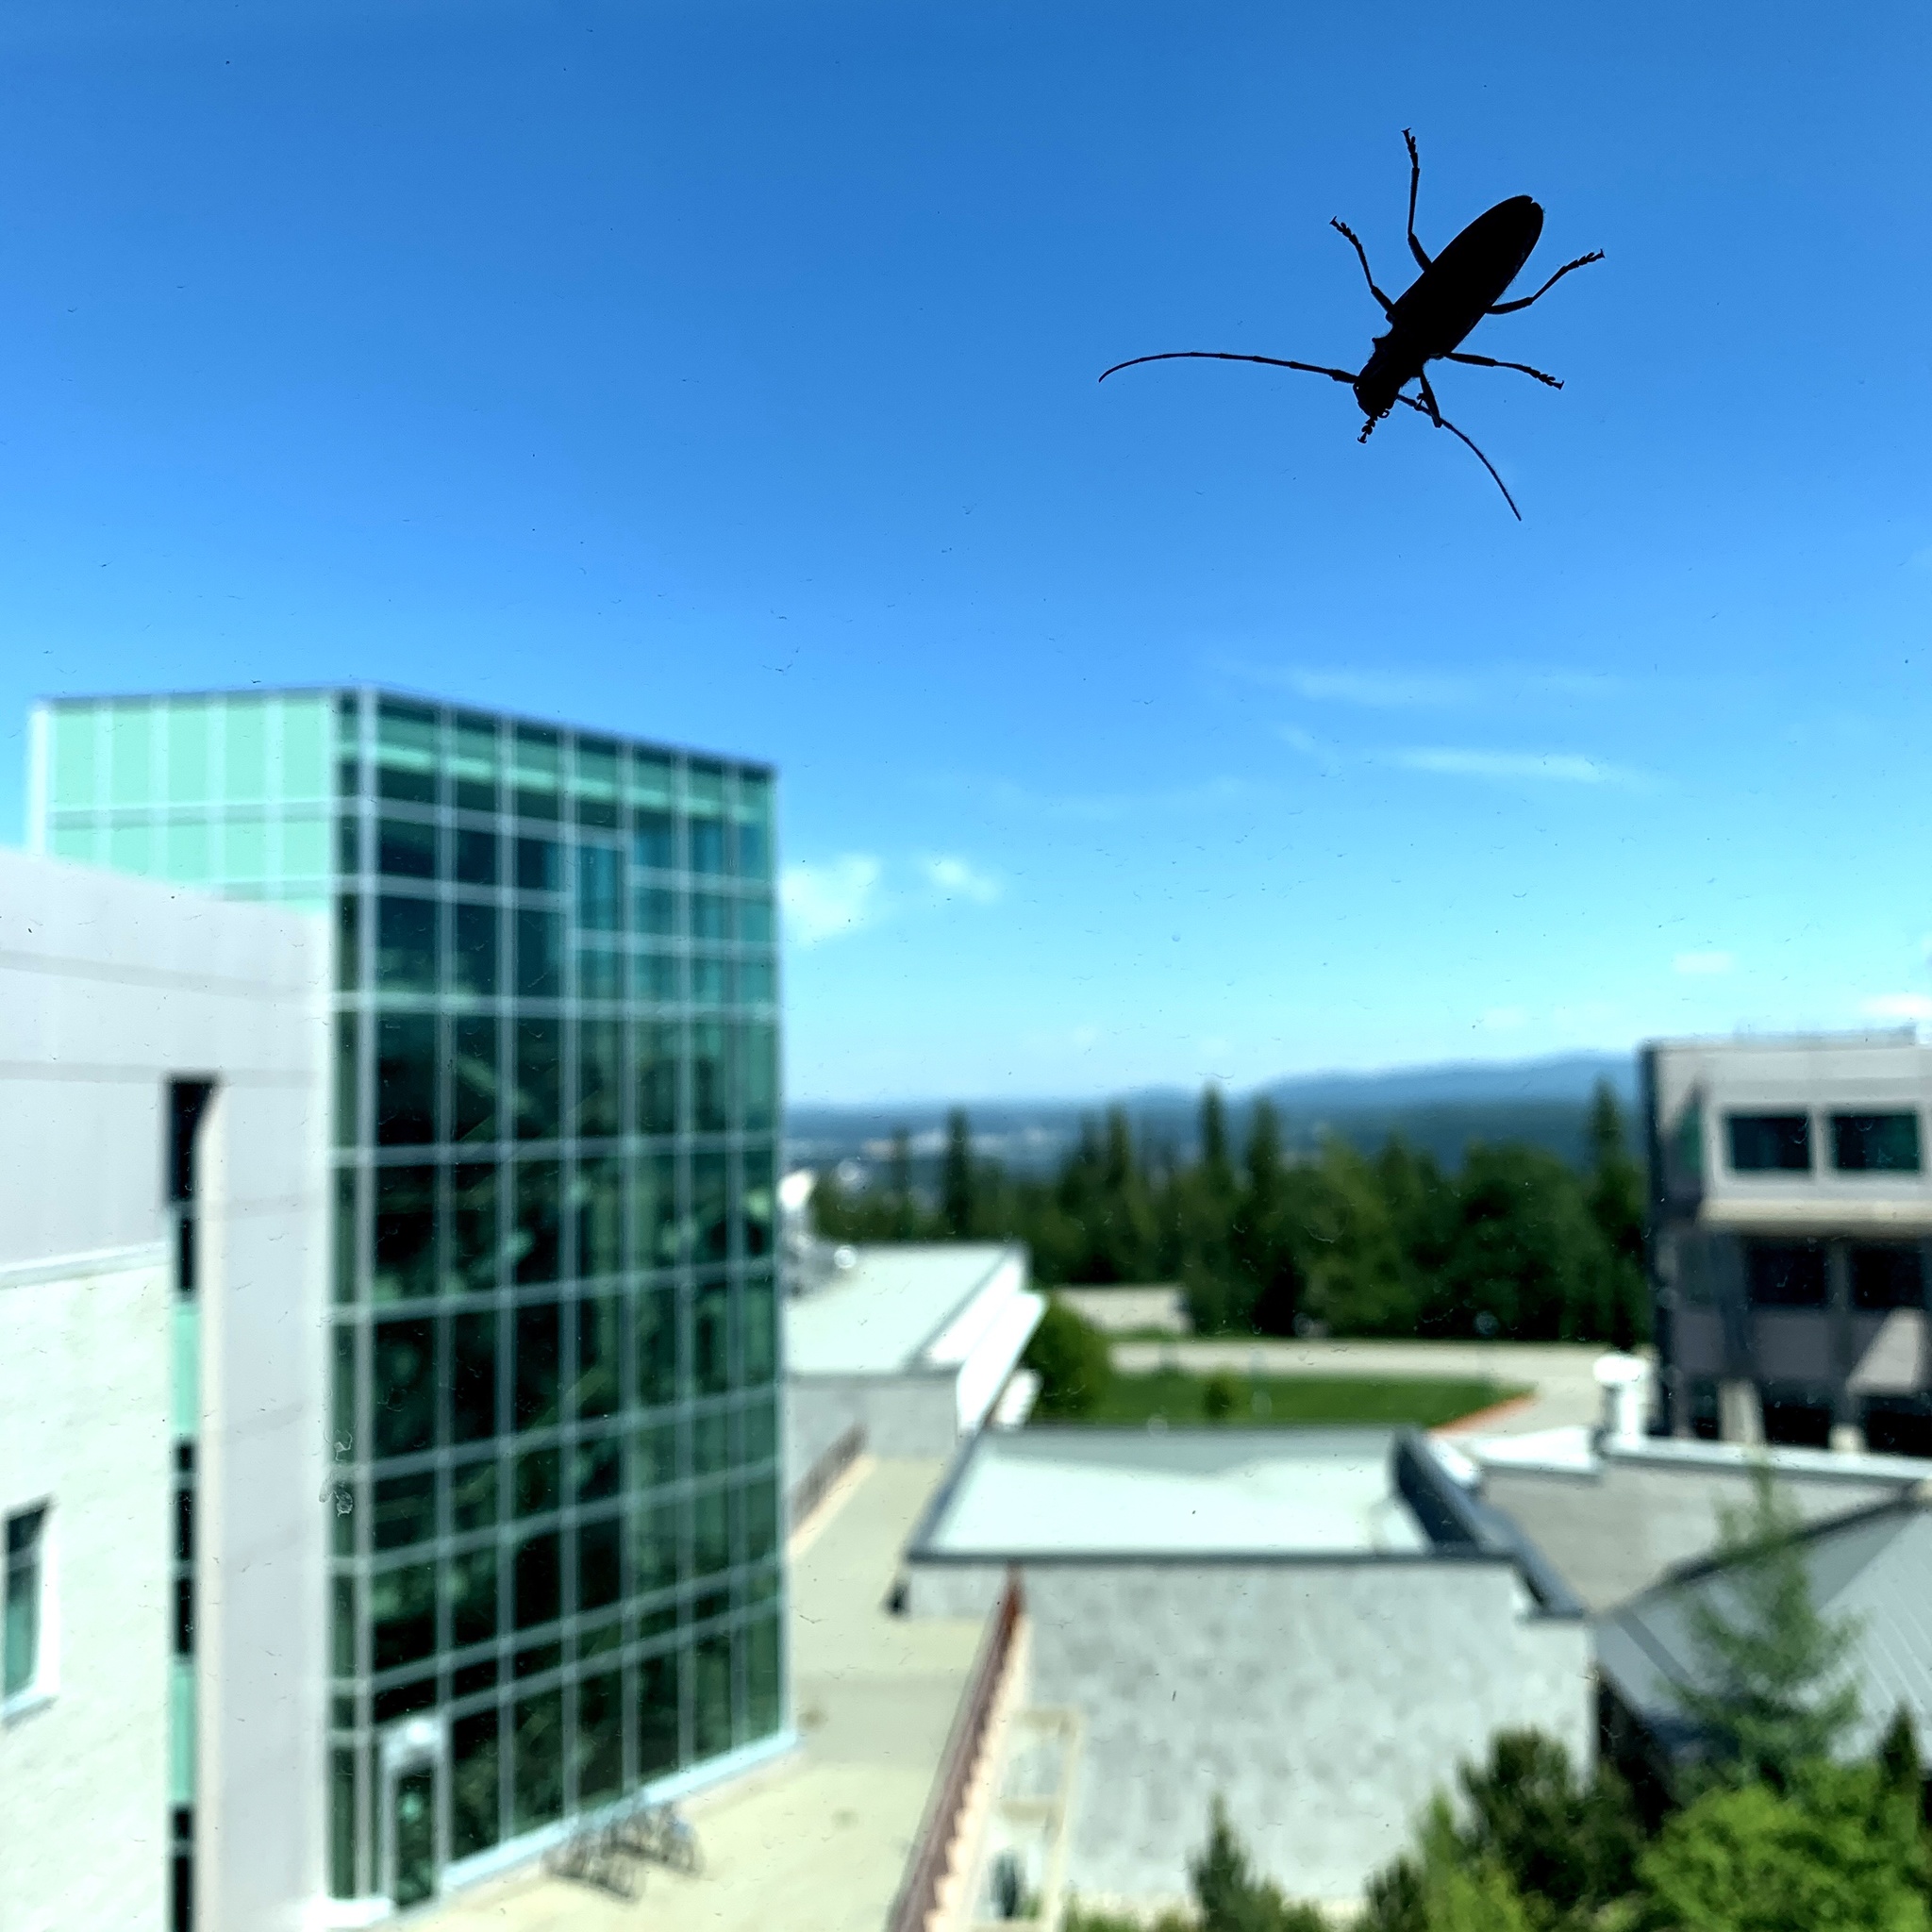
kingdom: Animalia
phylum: Arthropoda
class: Insecta
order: Coleoptera
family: Cerambycidae
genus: Monochamus
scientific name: Monochamus scutellatus
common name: White-spotted sawyer beetle
